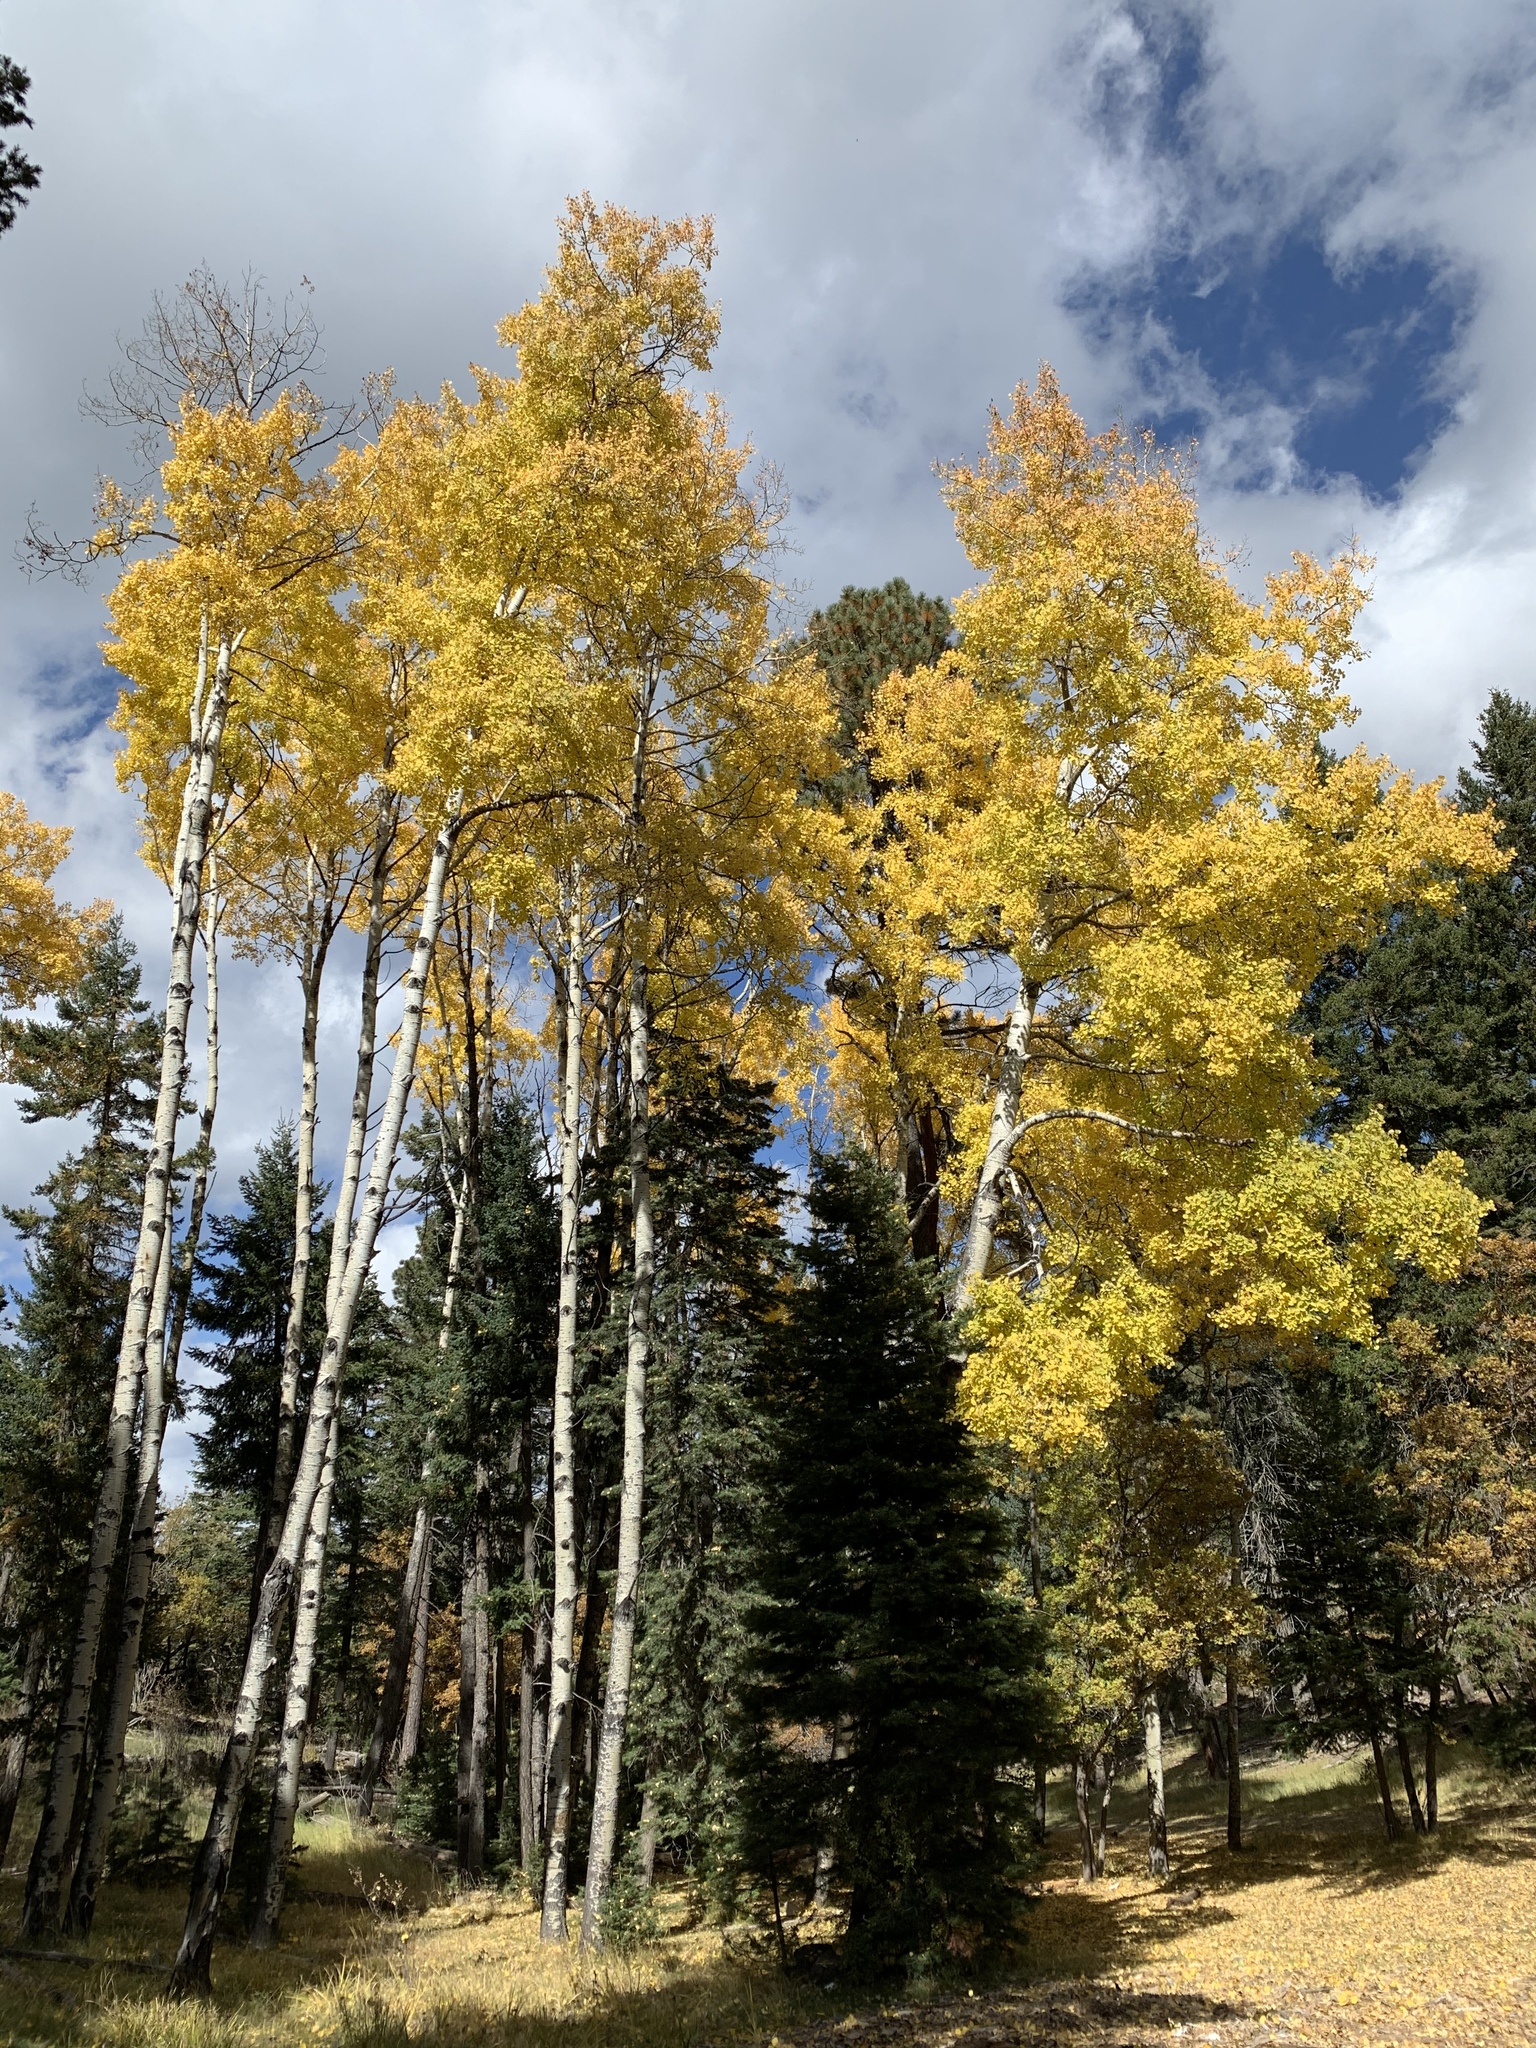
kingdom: Plantae
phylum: Tracheophyta
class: Magnoliopsida
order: Malpighiales
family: Salicaceae
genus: Populus
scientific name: Populus tremuloides
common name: Quaking aspen
